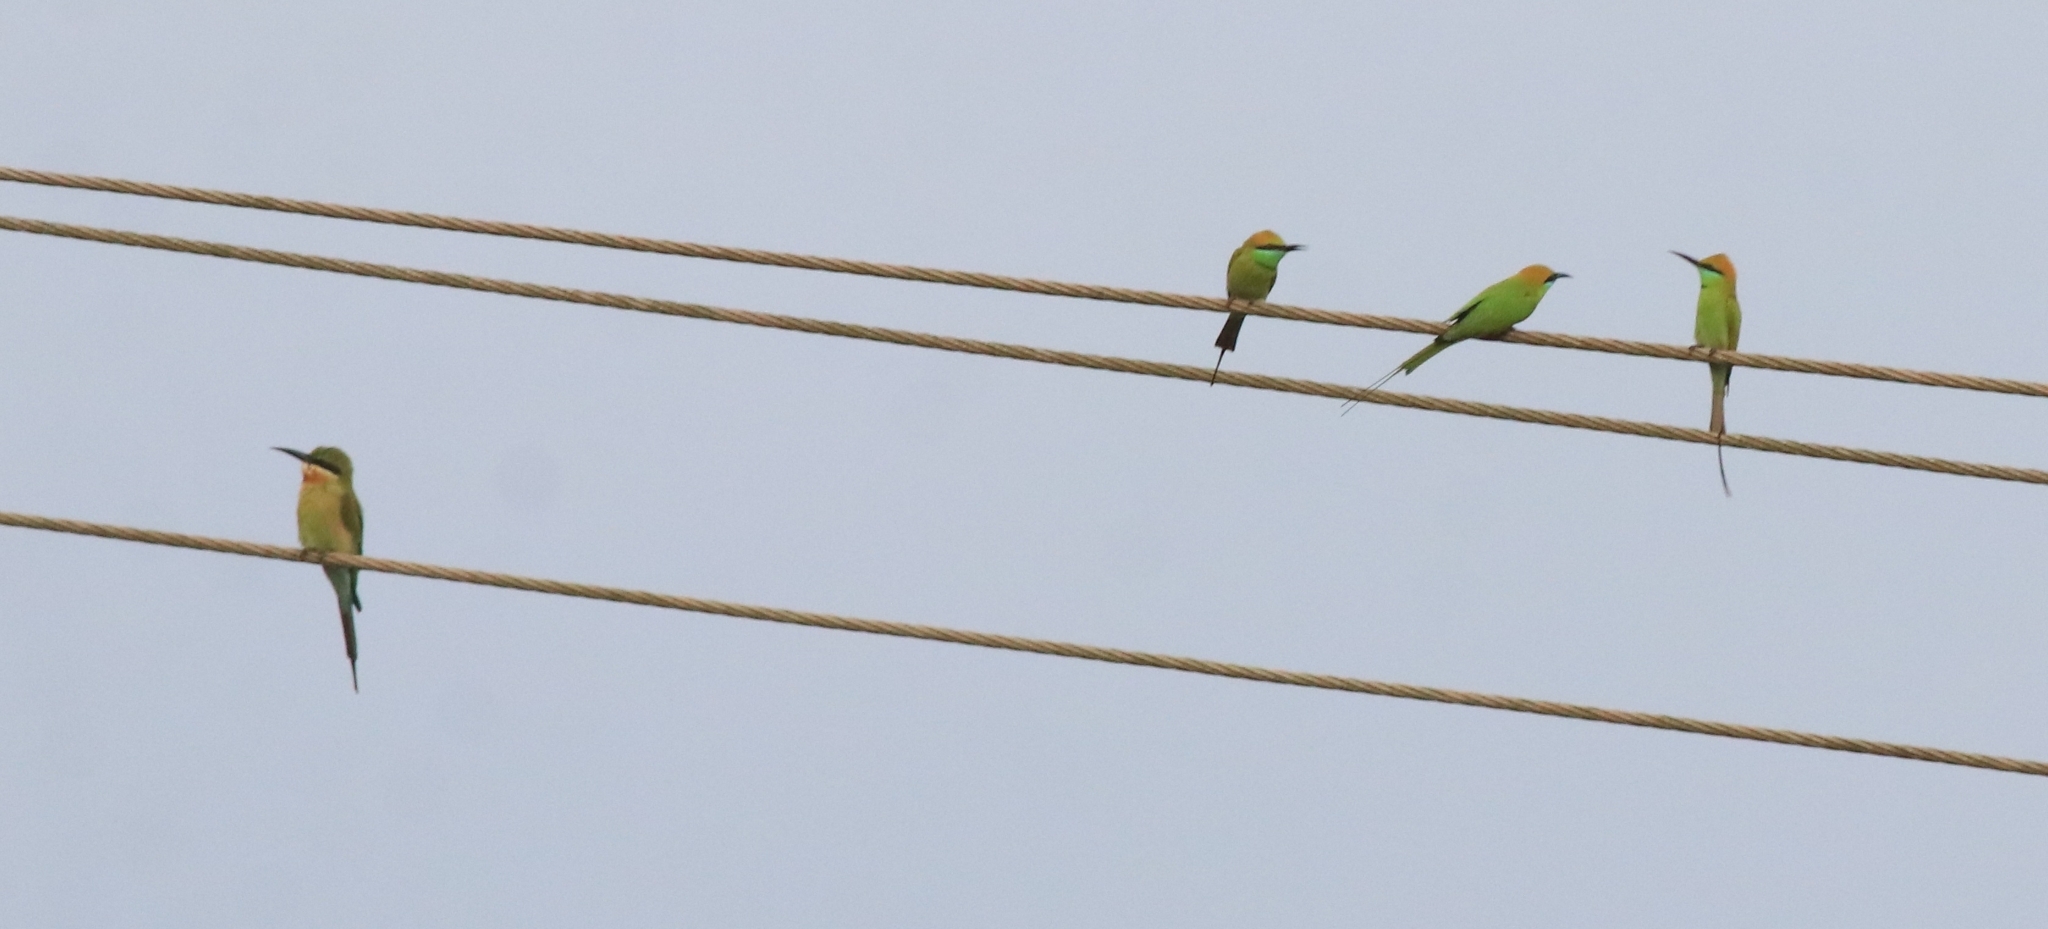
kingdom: Animalia
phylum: Chordata
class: Aves
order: Coraciiformes
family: Meropidae
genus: Merops
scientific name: Merops orientalis
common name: Green bee-eater
